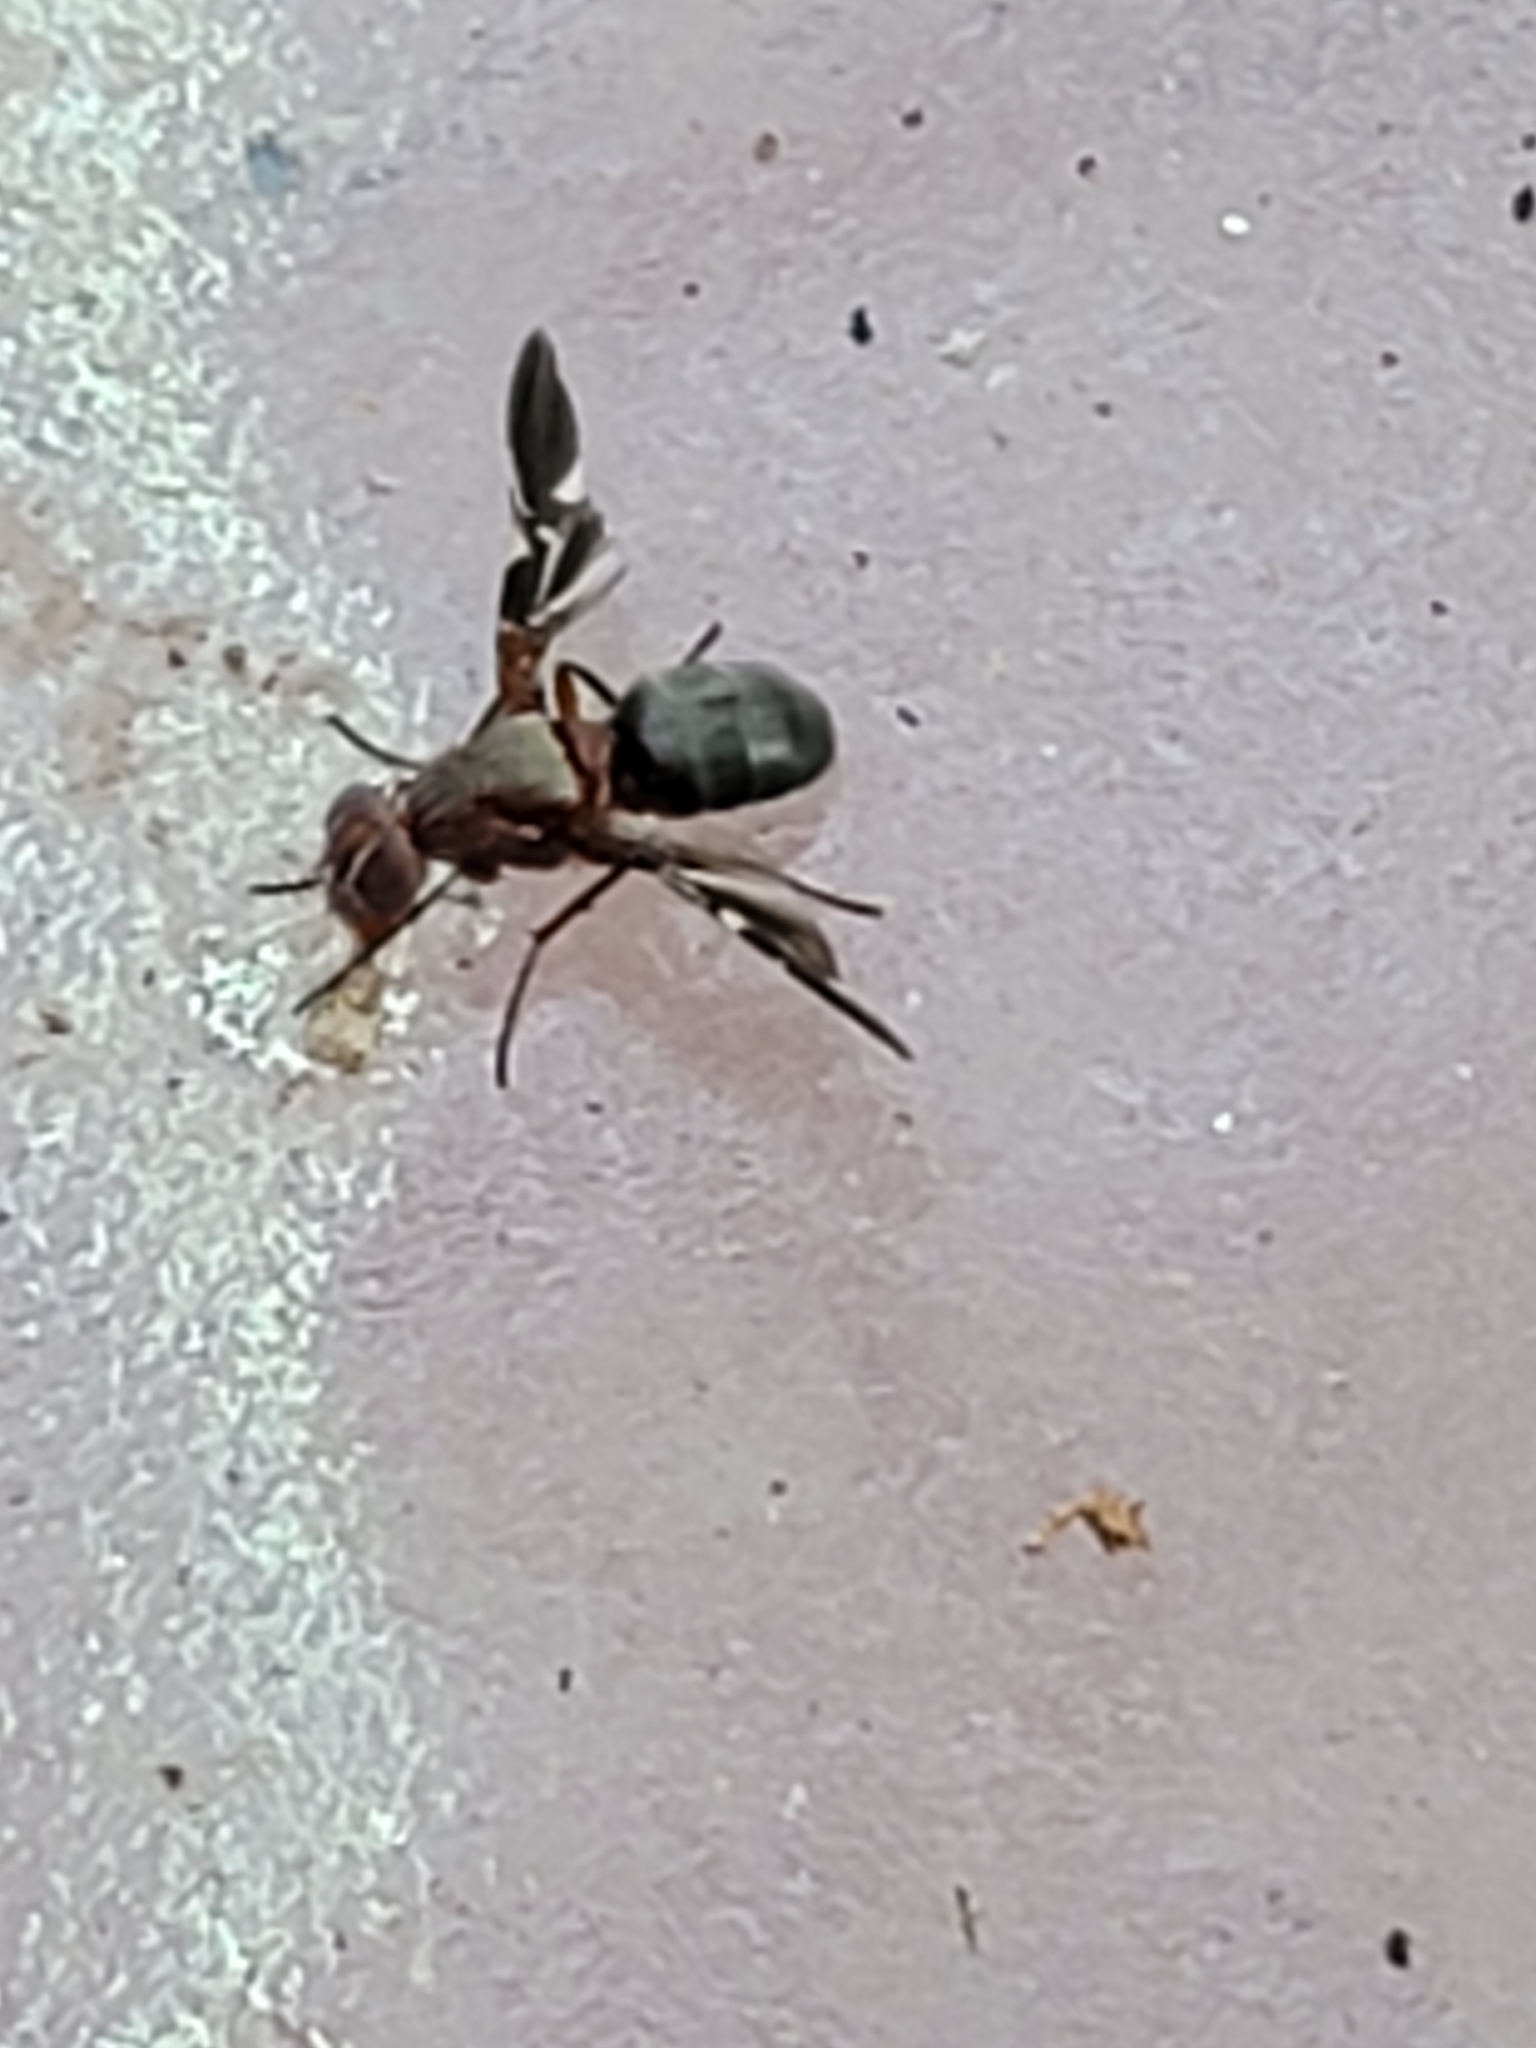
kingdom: Animalia
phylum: Arthropoda
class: Insecta
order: Diptera
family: Ulidiidae
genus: Delphinia
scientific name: Delphinia picta
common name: Common picture-winged fly
